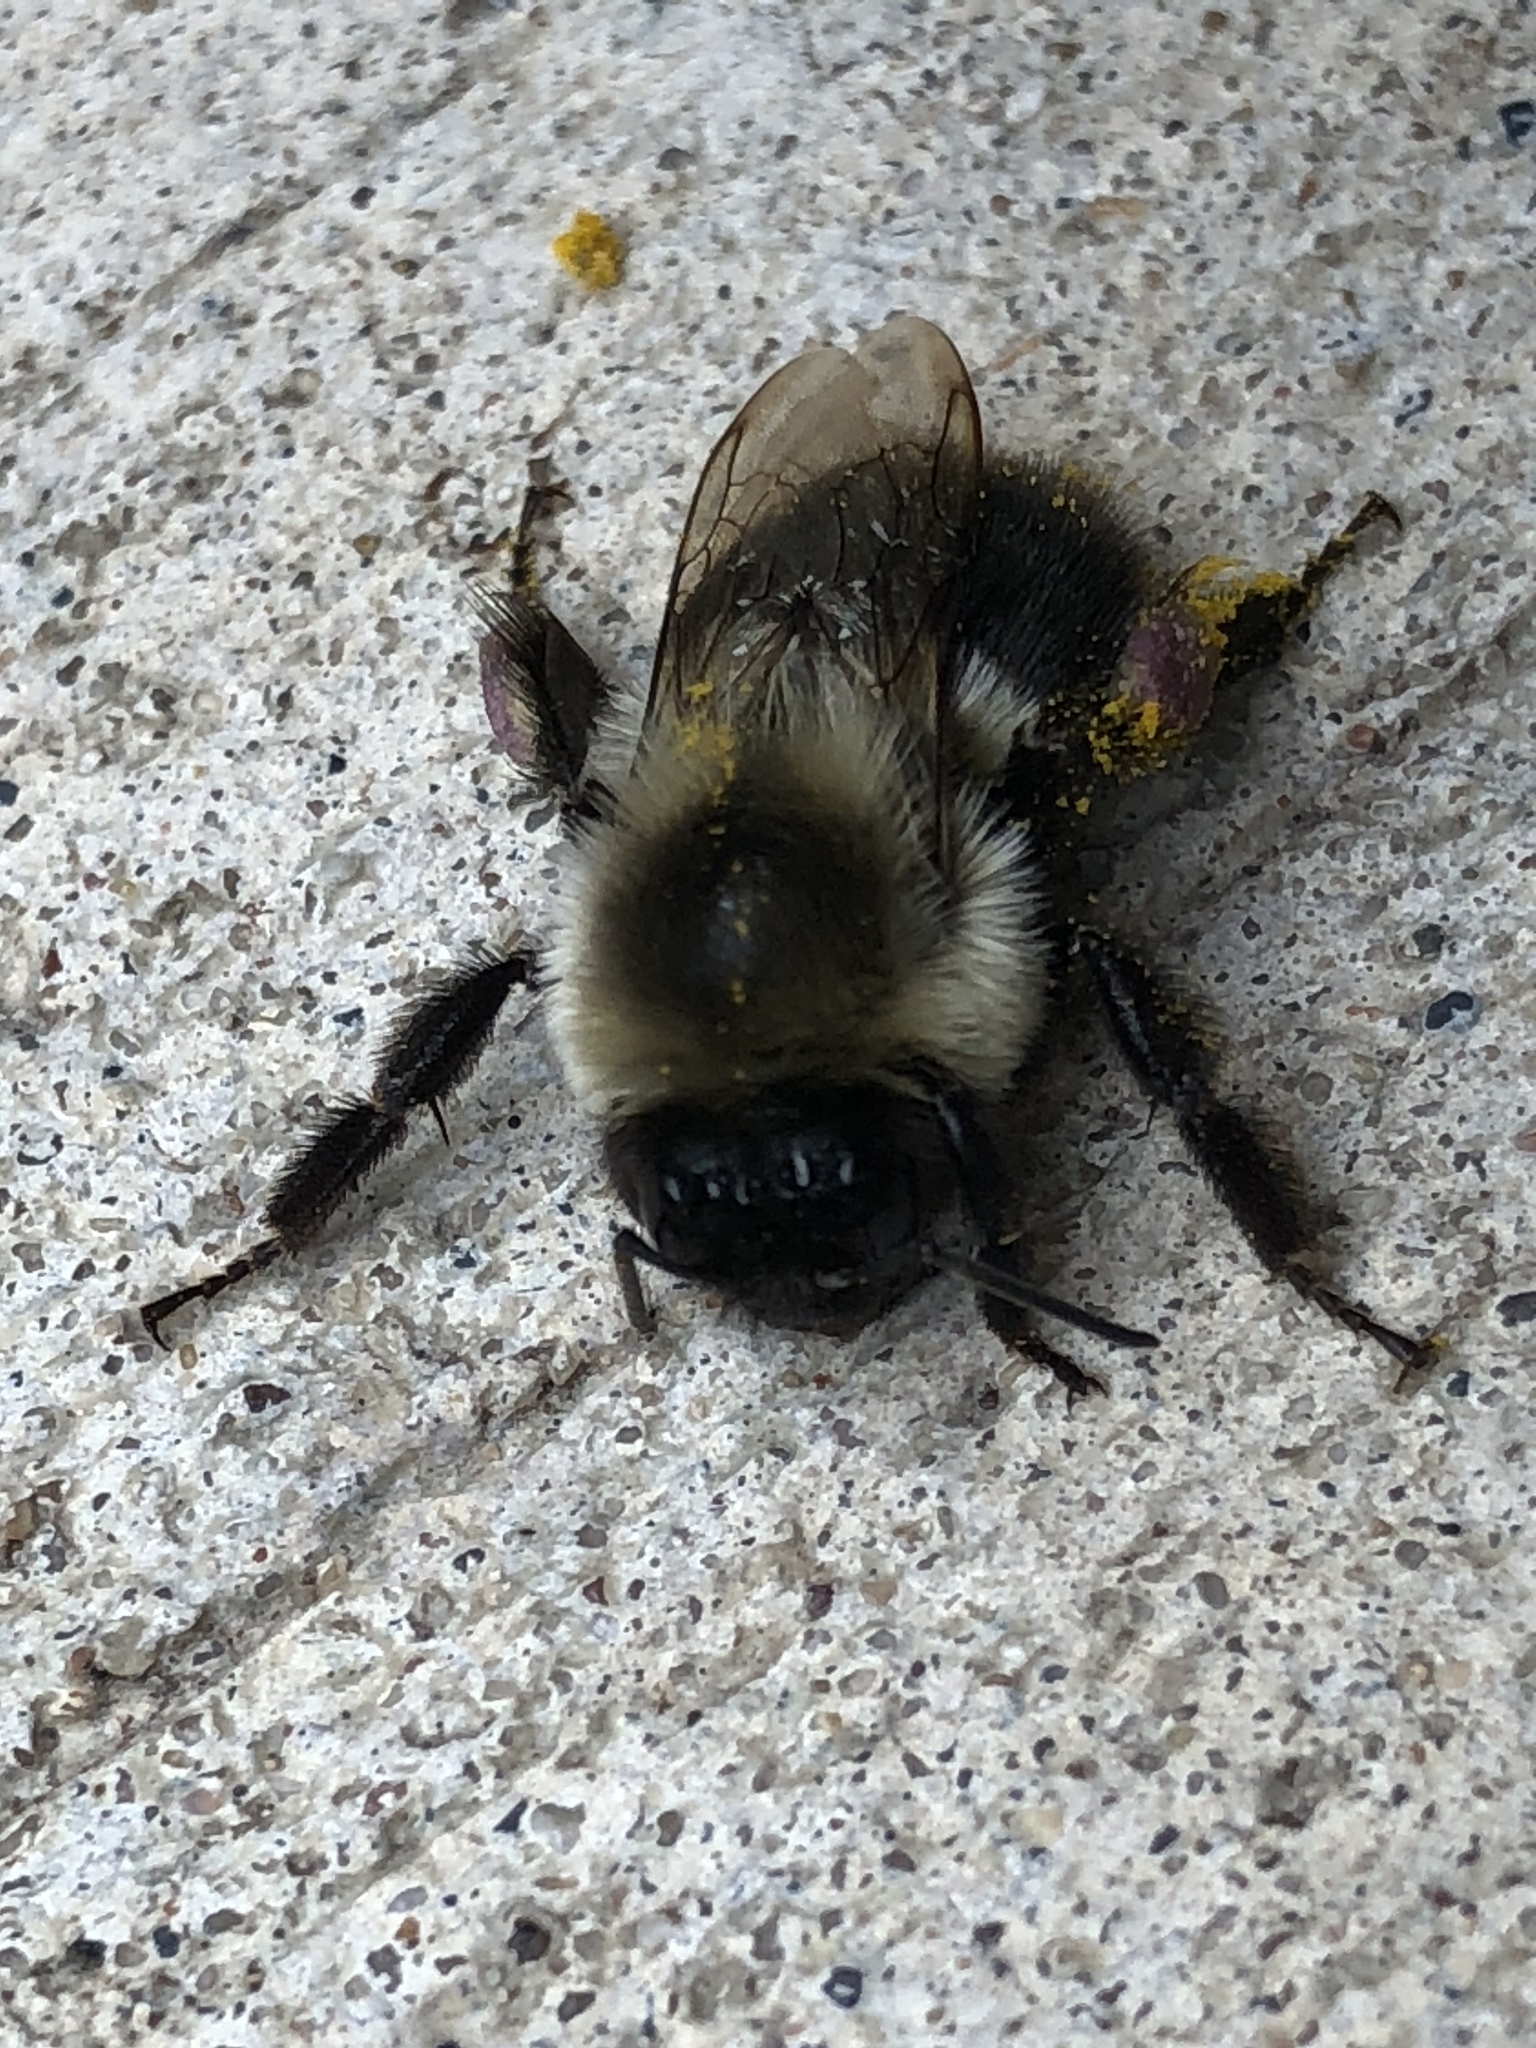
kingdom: Animalia
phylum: Arthropoda
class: Insecta
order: Hymenoptera
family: Apidae
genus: Bombus
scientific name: Bombus impatiens
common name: Common eastern bumble bee
